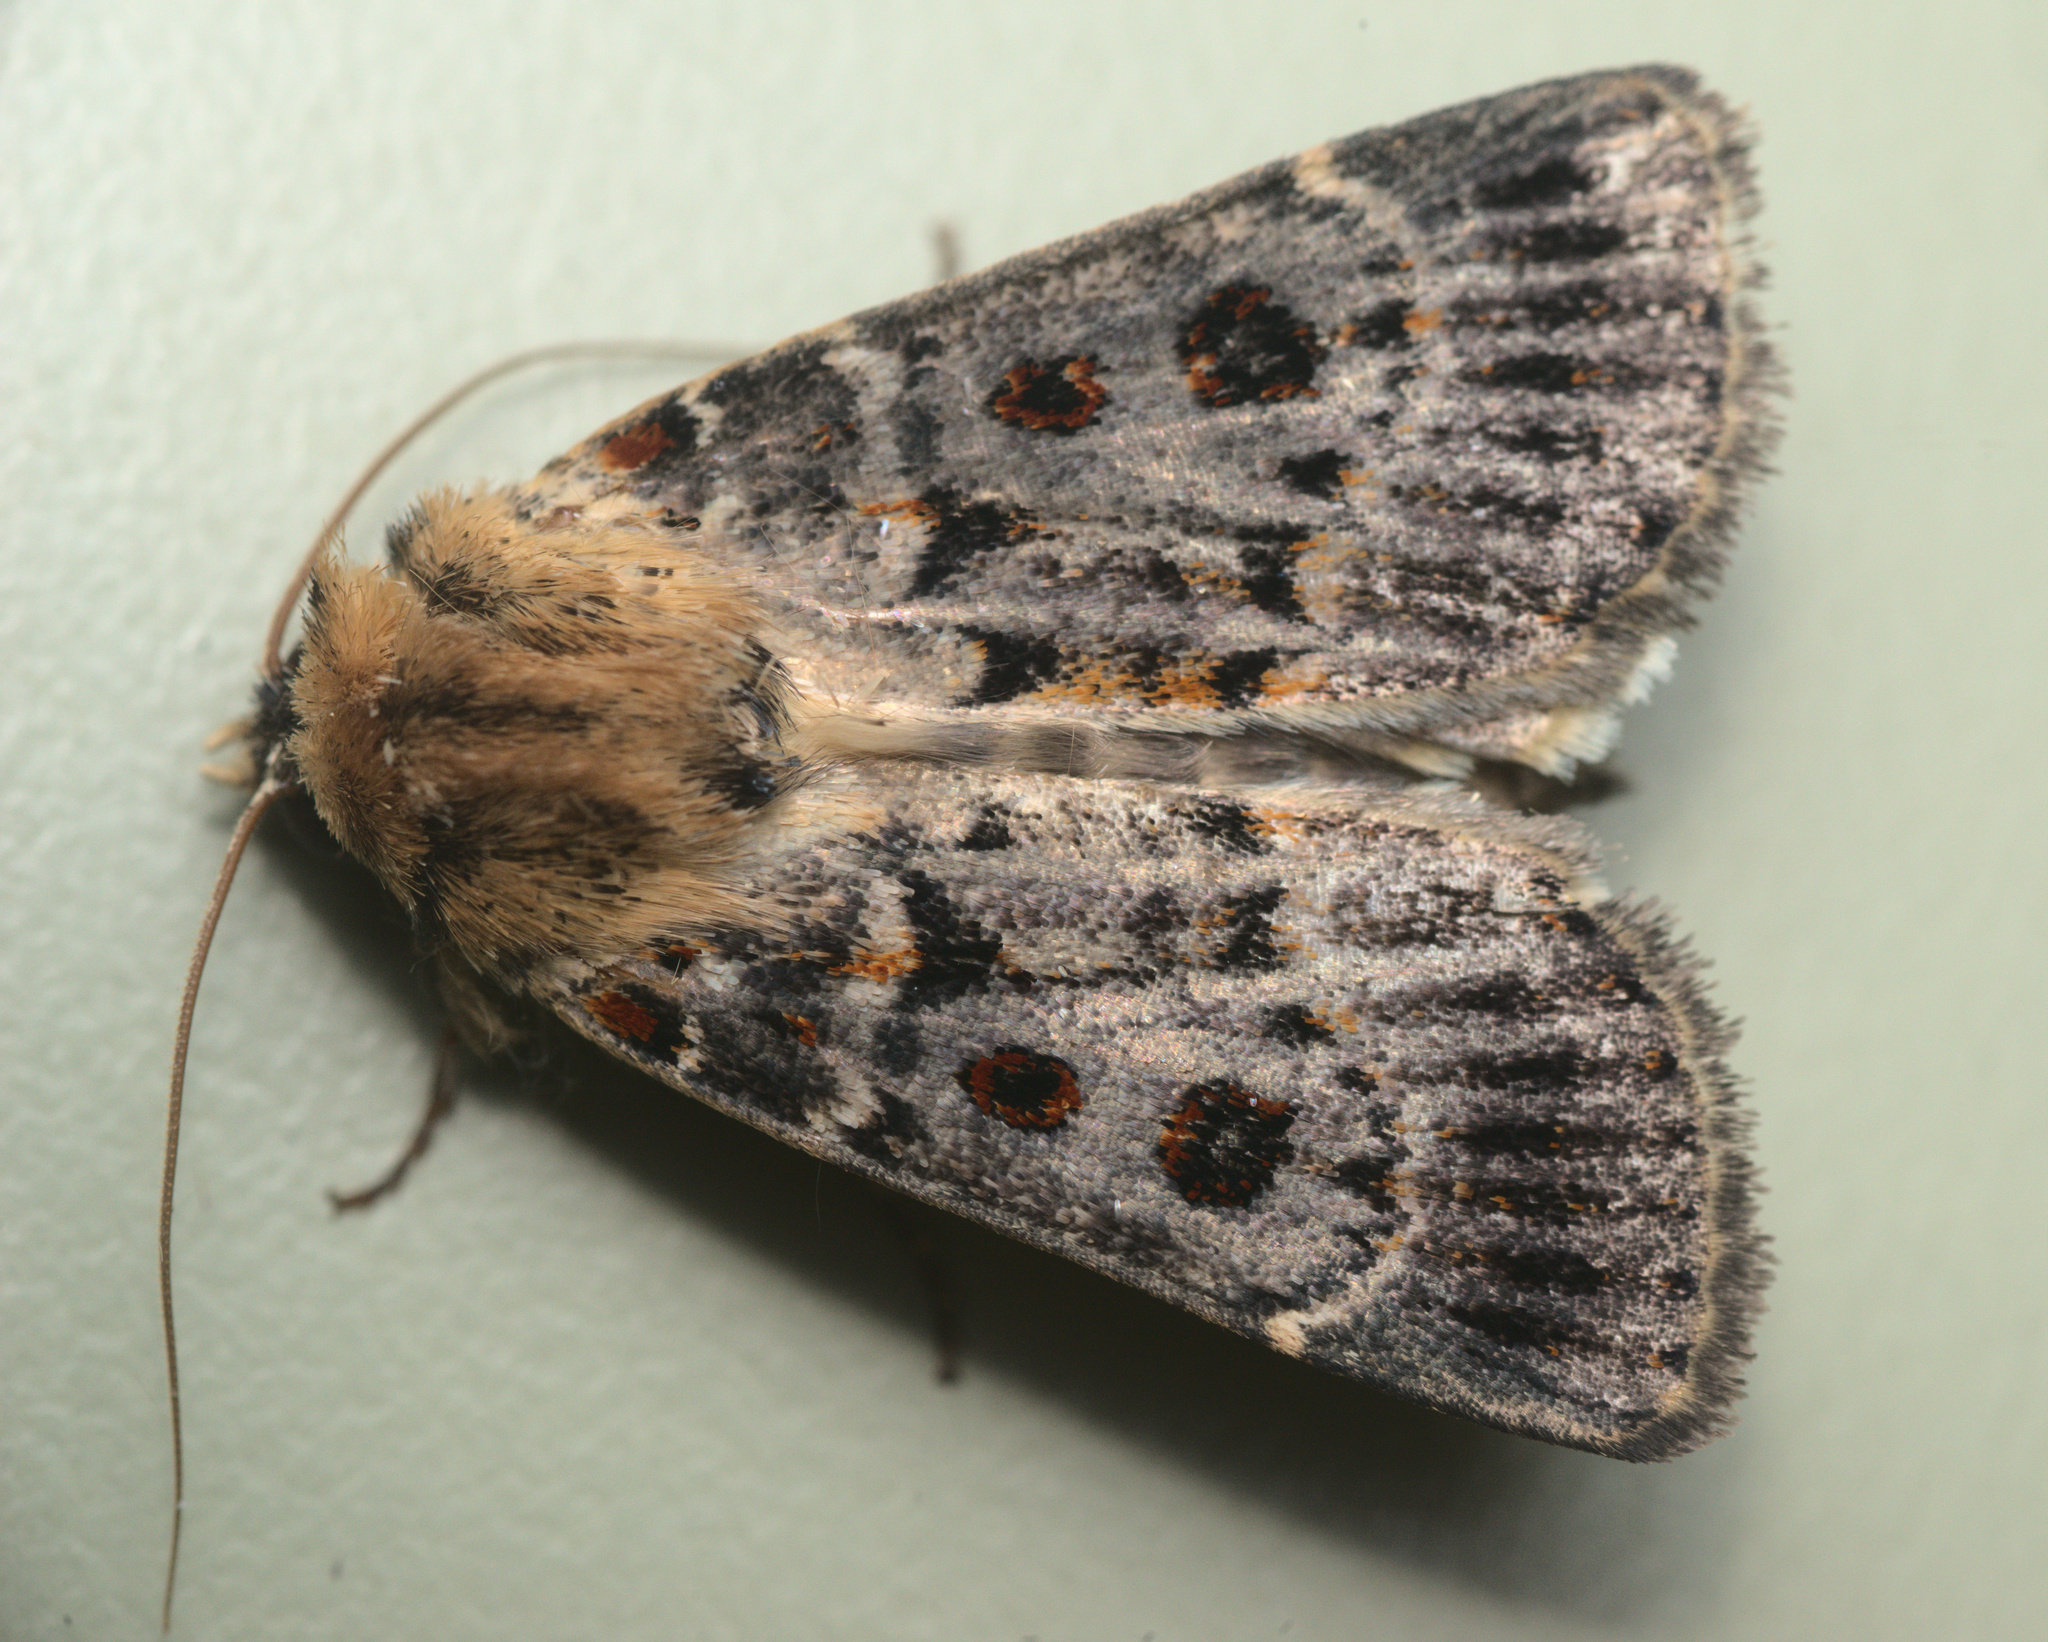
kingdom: Animalia
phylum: Arthropoda
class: Insecta
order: Lepidoptera
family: Noctuidae
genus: Proteuxoa
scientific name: Proteuxoa sanguinipuncta
